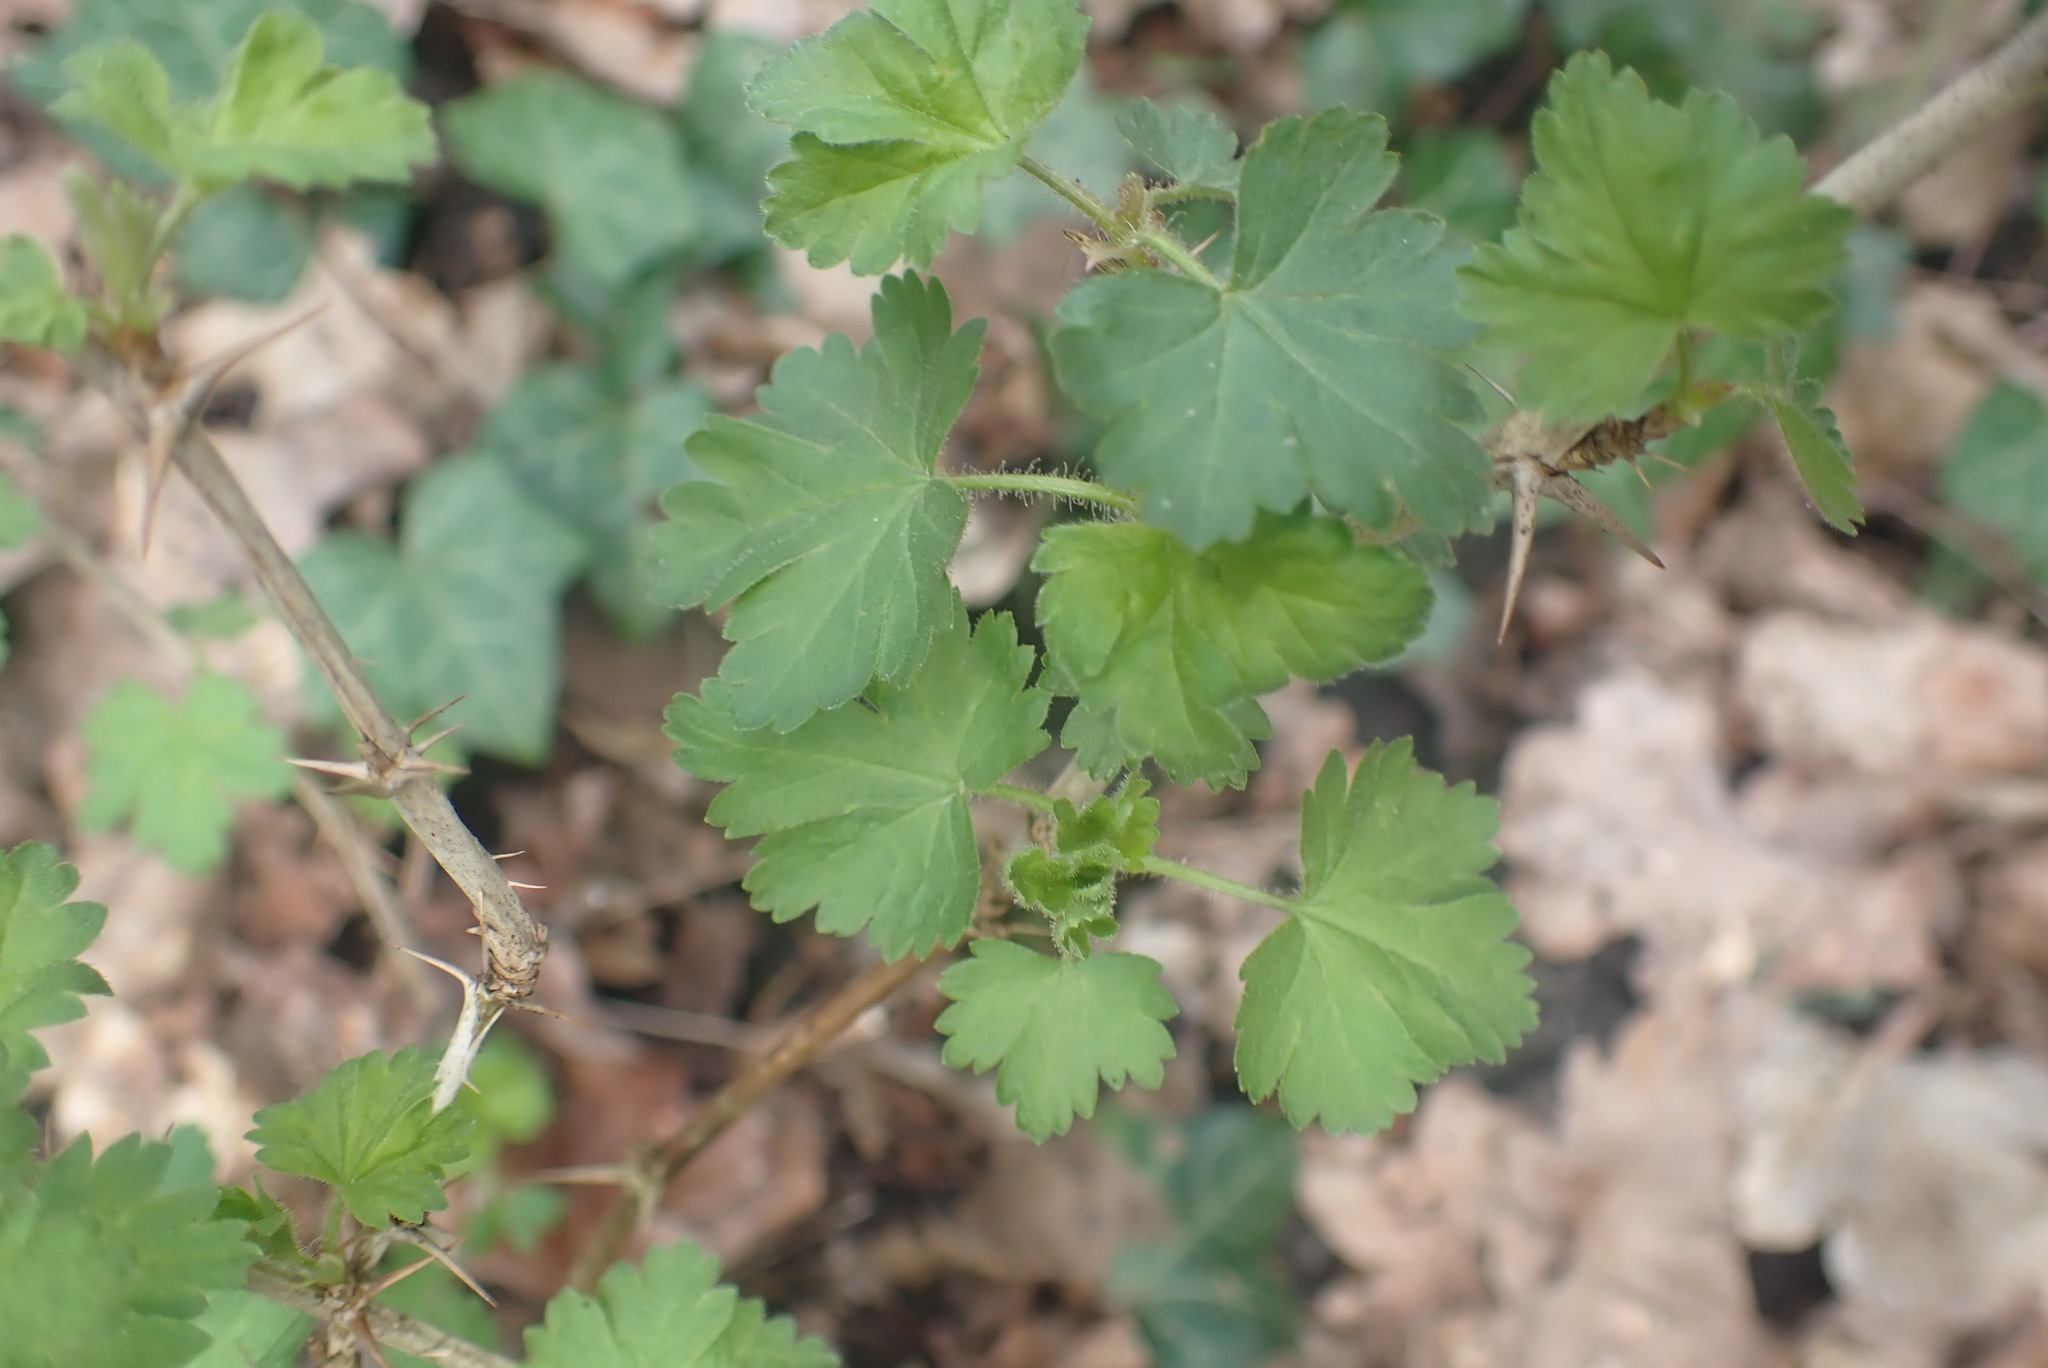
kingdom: Plantae
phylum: Tracheophyta
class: Magnoliopsida
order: Saxifragales
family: Grossulariaceae
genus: Ribes
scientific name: Ribes uva-crispa
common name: Gooseberry
